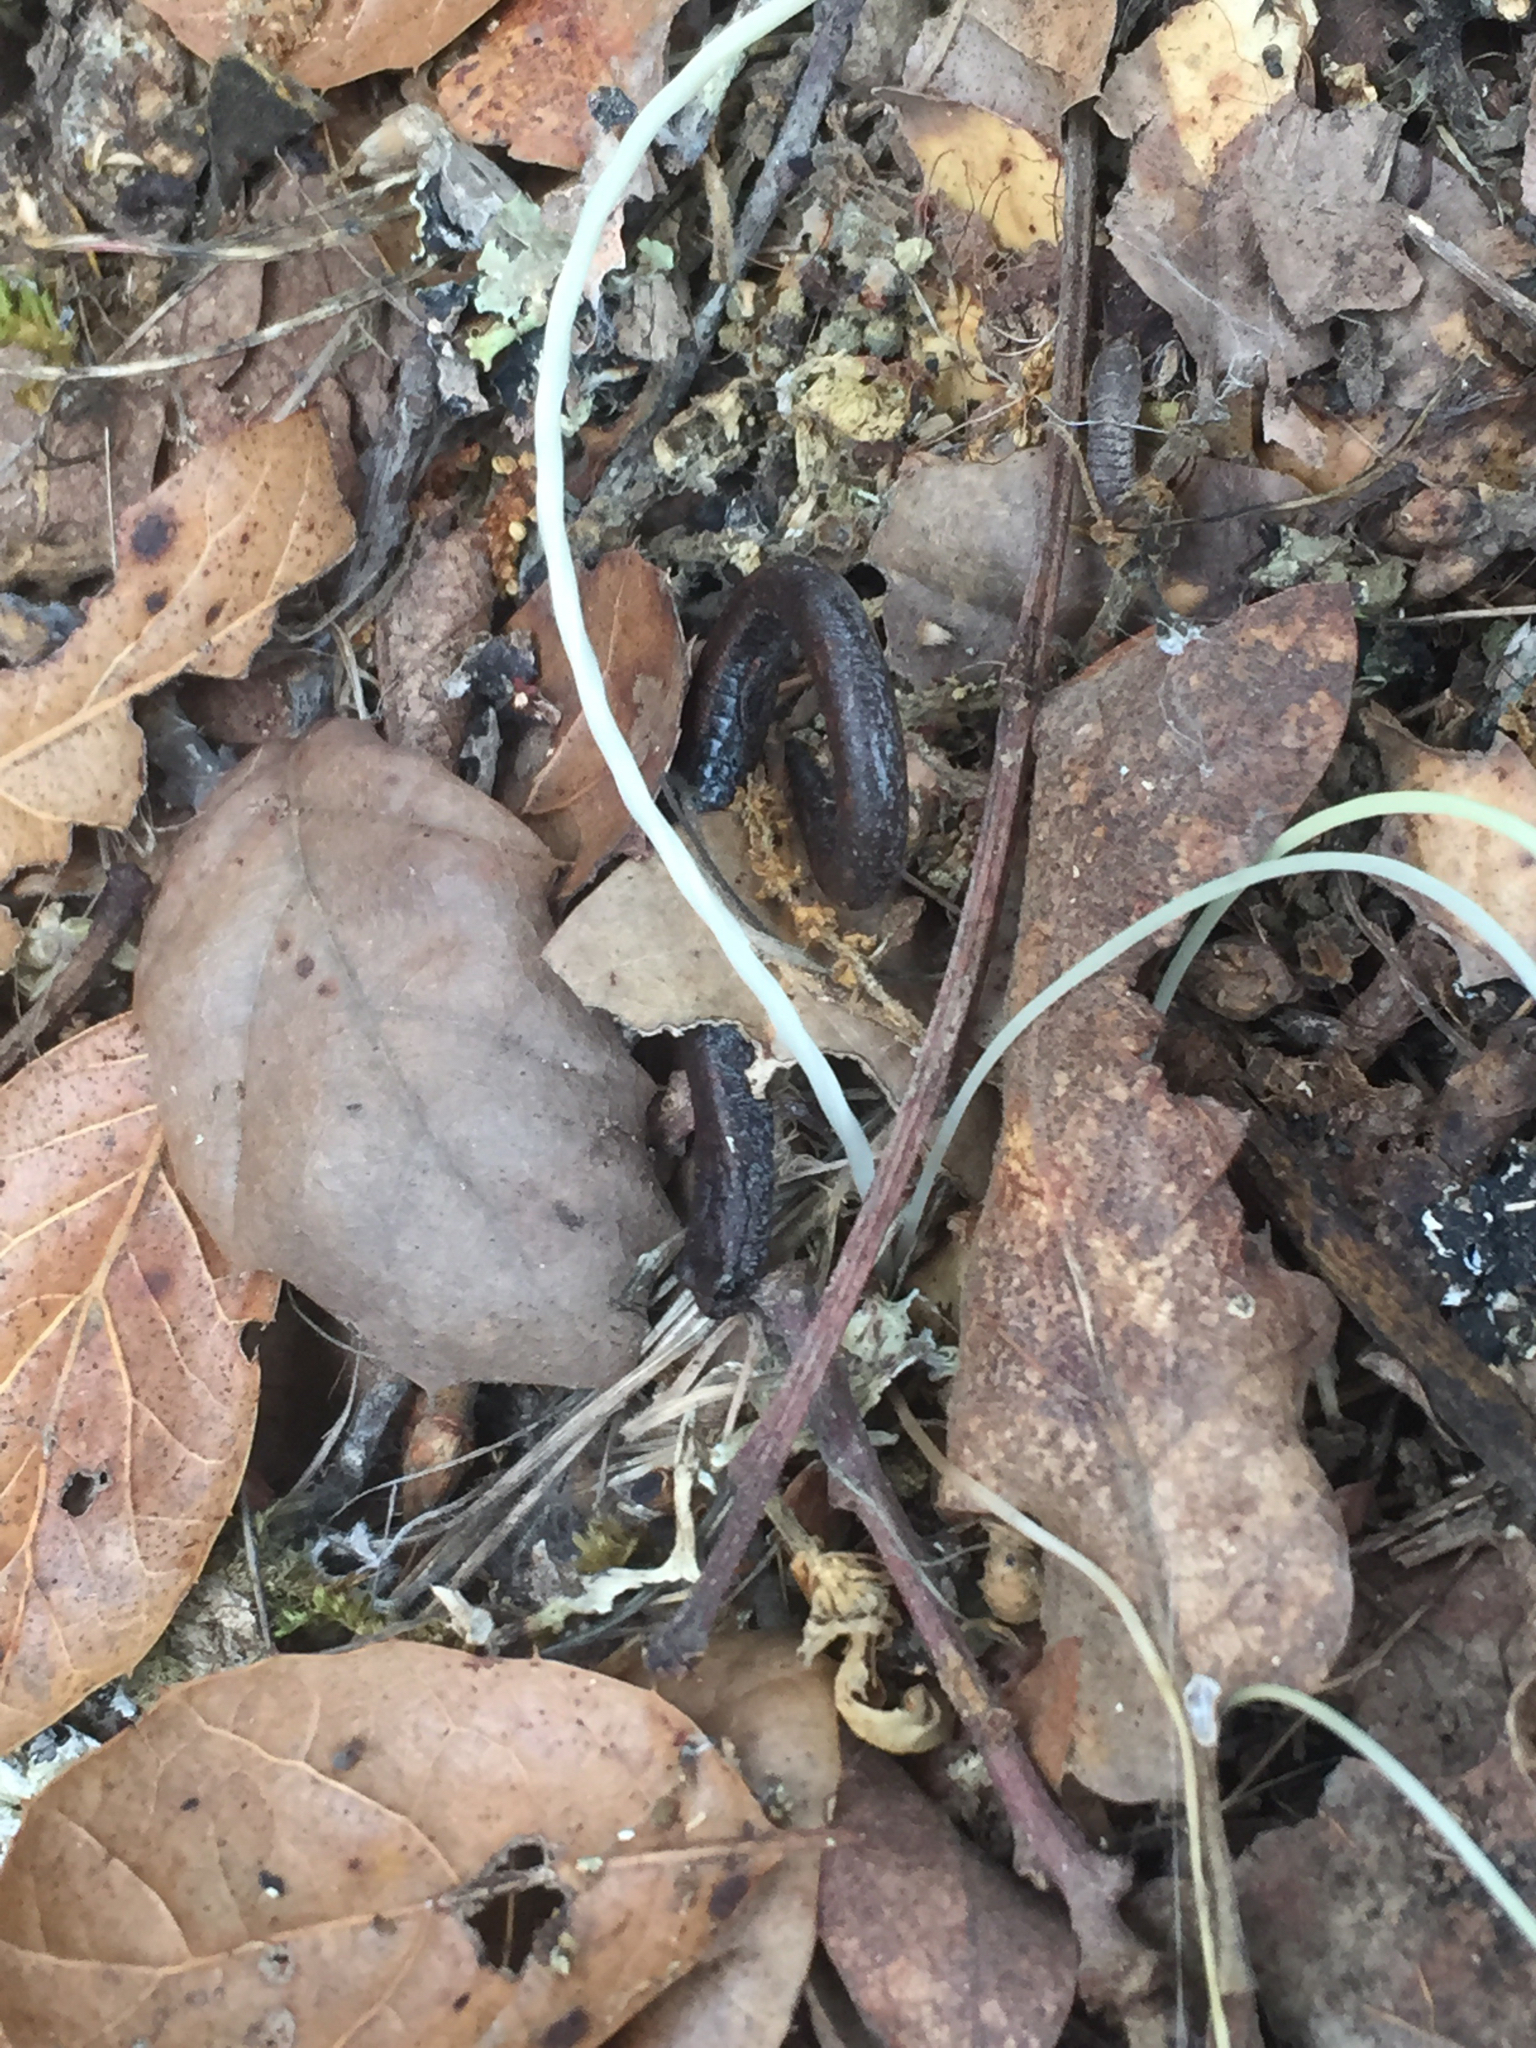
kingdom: Animalia
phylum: Chordata
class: Amphibia
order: Caudata
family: Plethodontidae
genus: Batrachoseps
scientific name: Batrachoseps attenuatus
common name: California slender salamander
